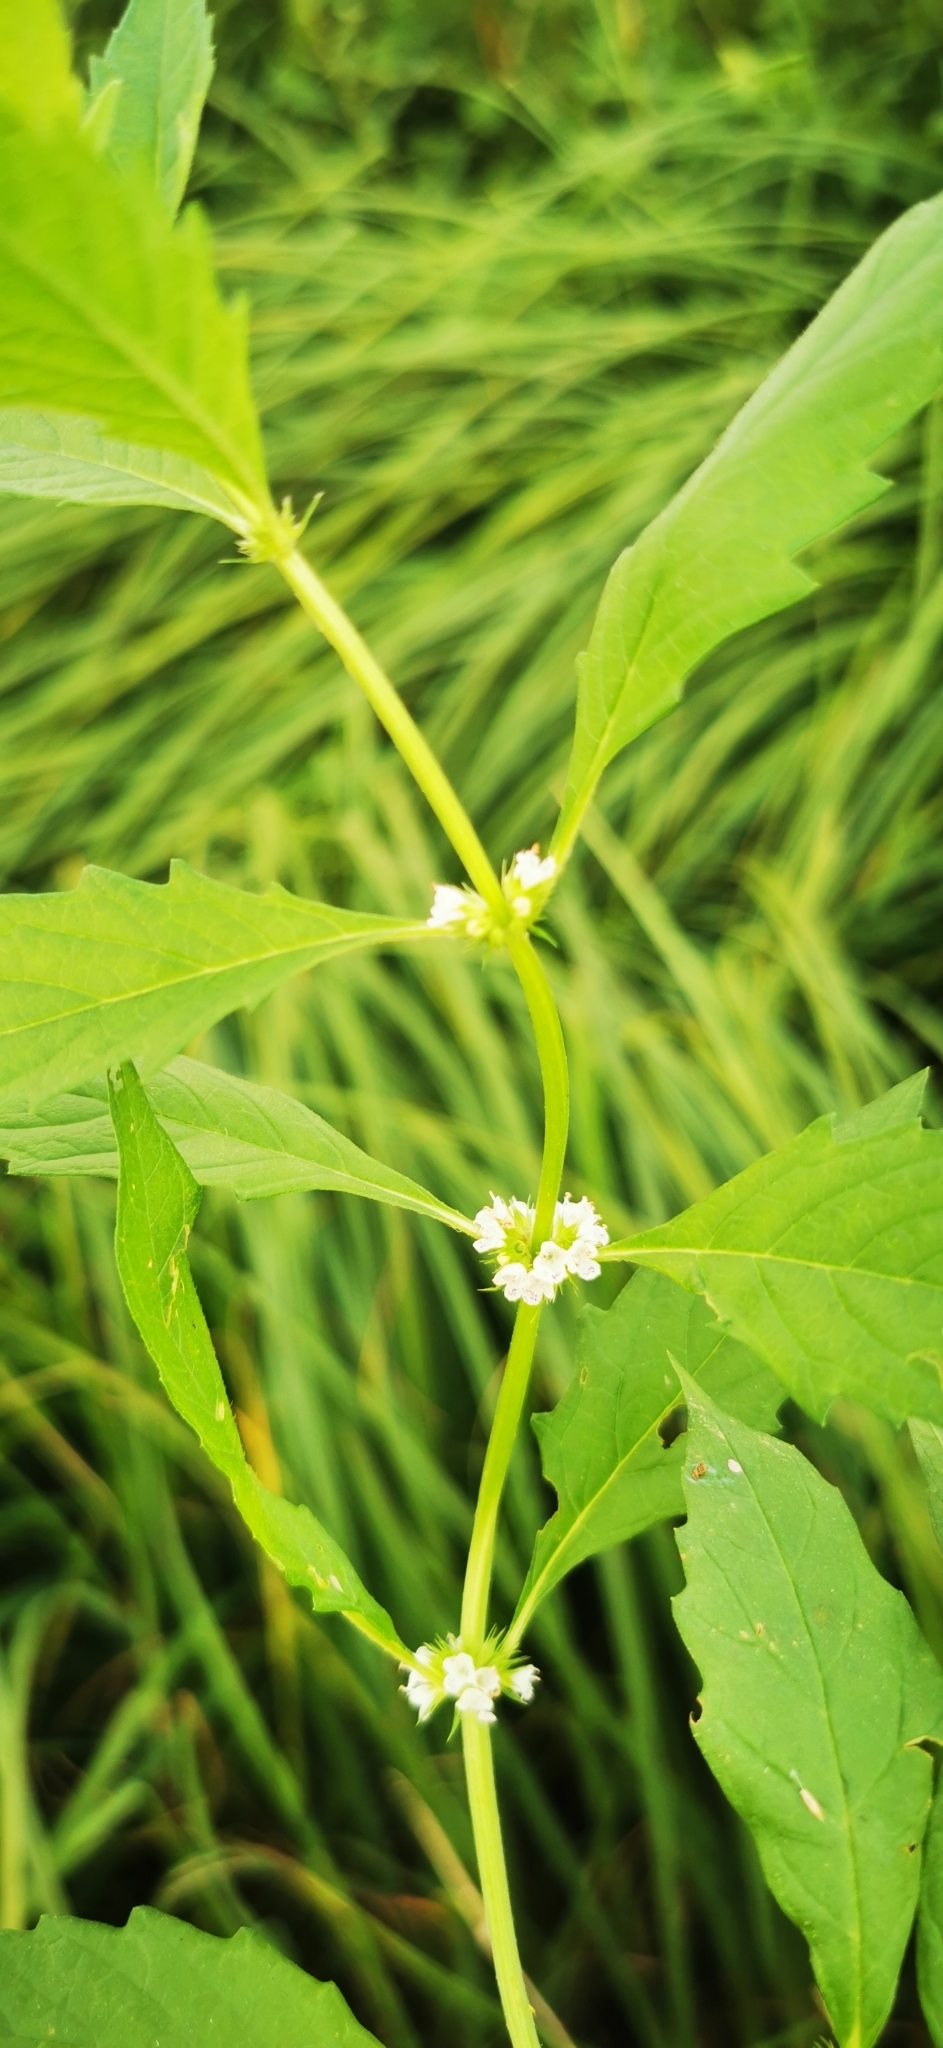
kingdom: Plantae
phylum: Tracheophyta
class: Magnoliopsida
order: Lamiales
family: Lamiaceae
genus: Lycopus
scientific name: Lycopus europaeus
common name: European bugleweed
